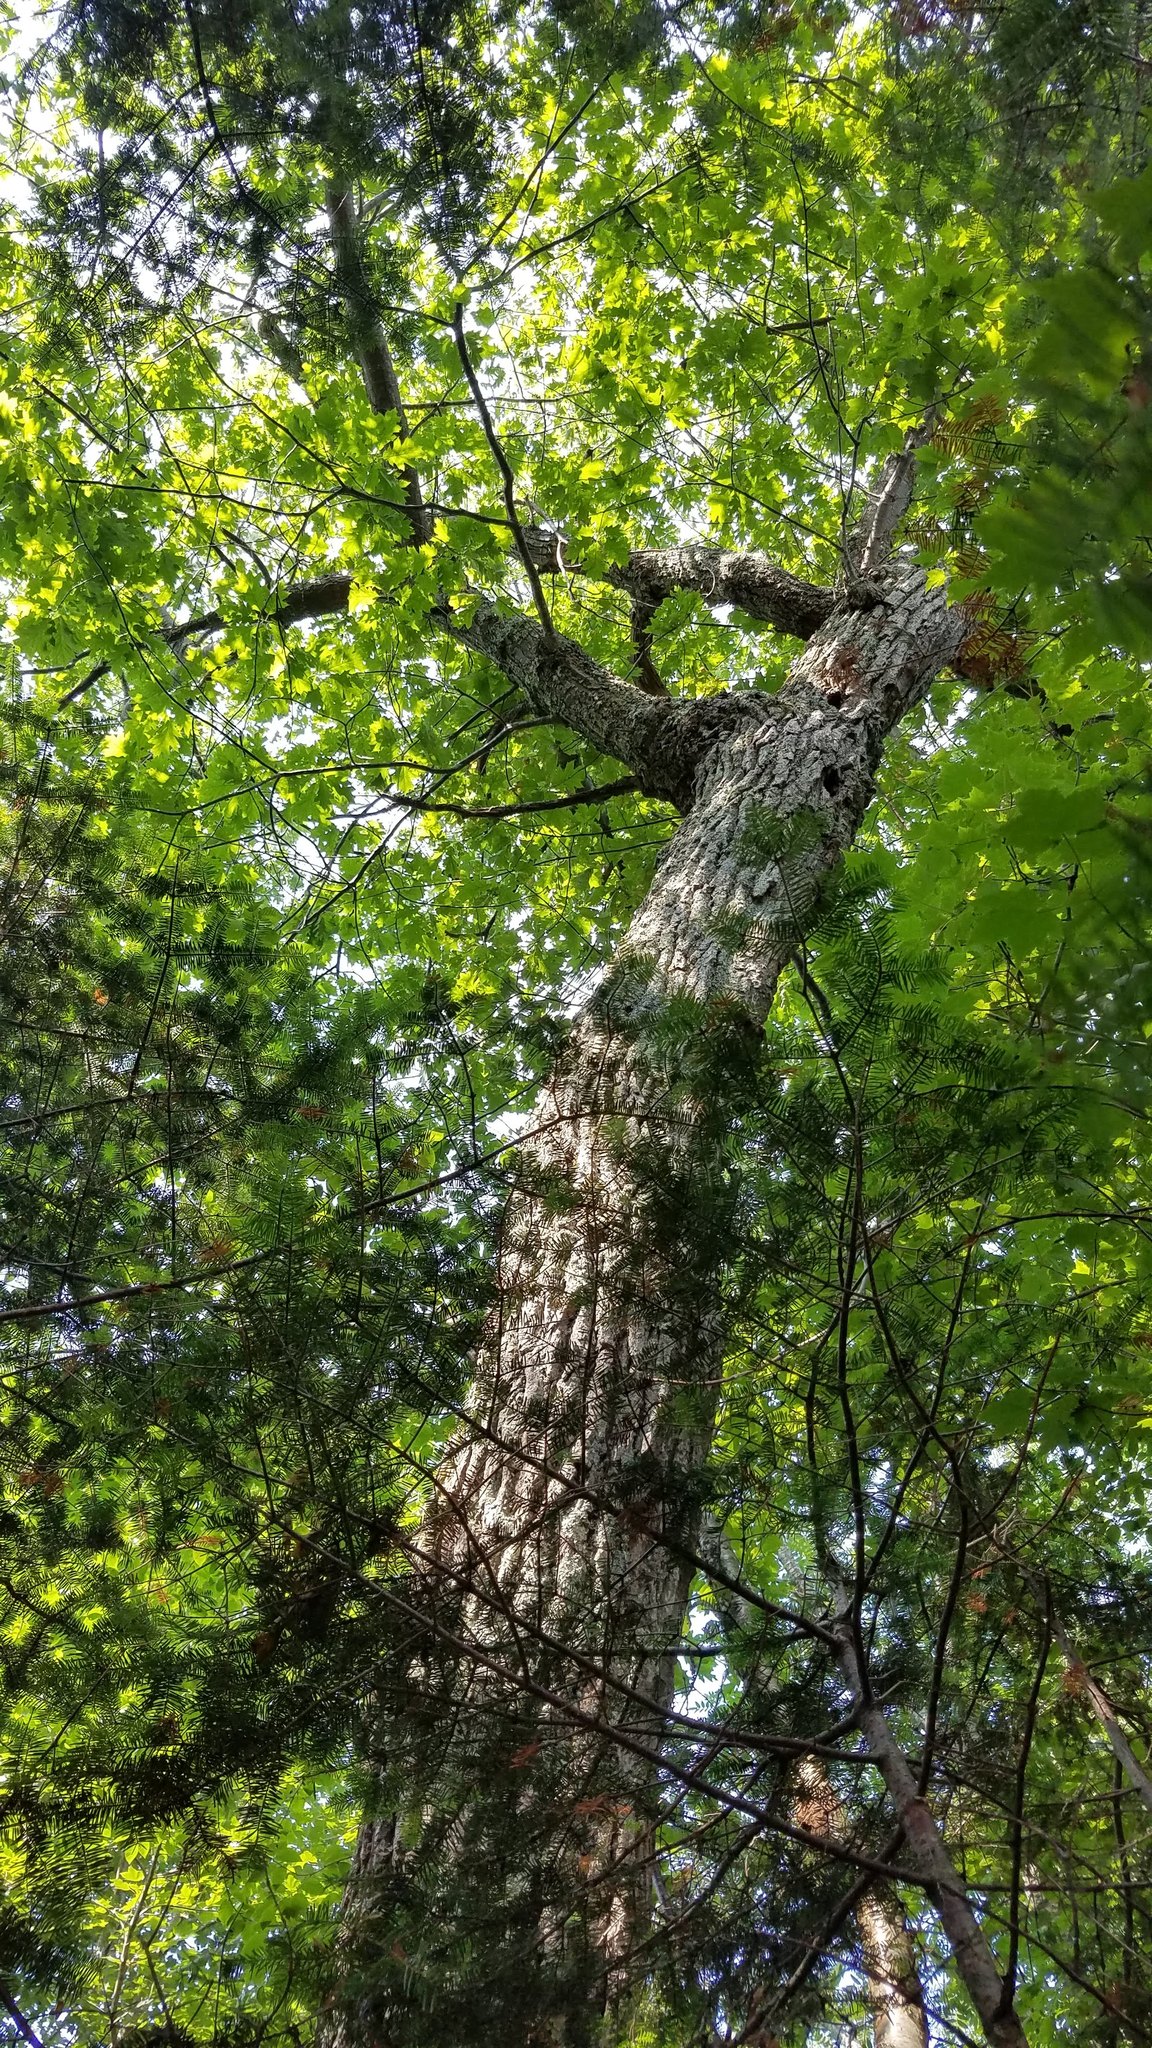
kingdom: Plantae
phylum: Tracheophyta
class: Magnoliopsida
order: Fagales
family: Fagaceae
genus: Quercus
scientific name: Quercus rubra
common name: Red oak
